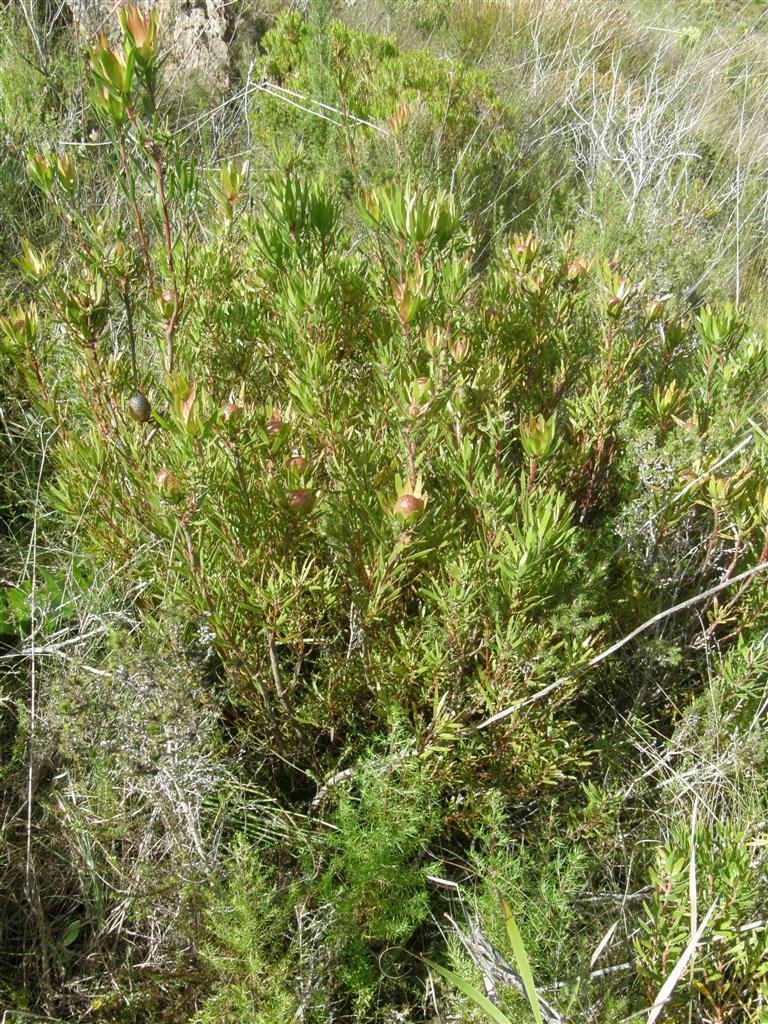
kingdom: Plantae
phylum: Tracheophyta
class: Magnoliopsida
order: Proteales
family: Proteaceae
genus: Leucadendron
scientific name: Leucadendron spissifolium
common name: Spear-leaf conebush
